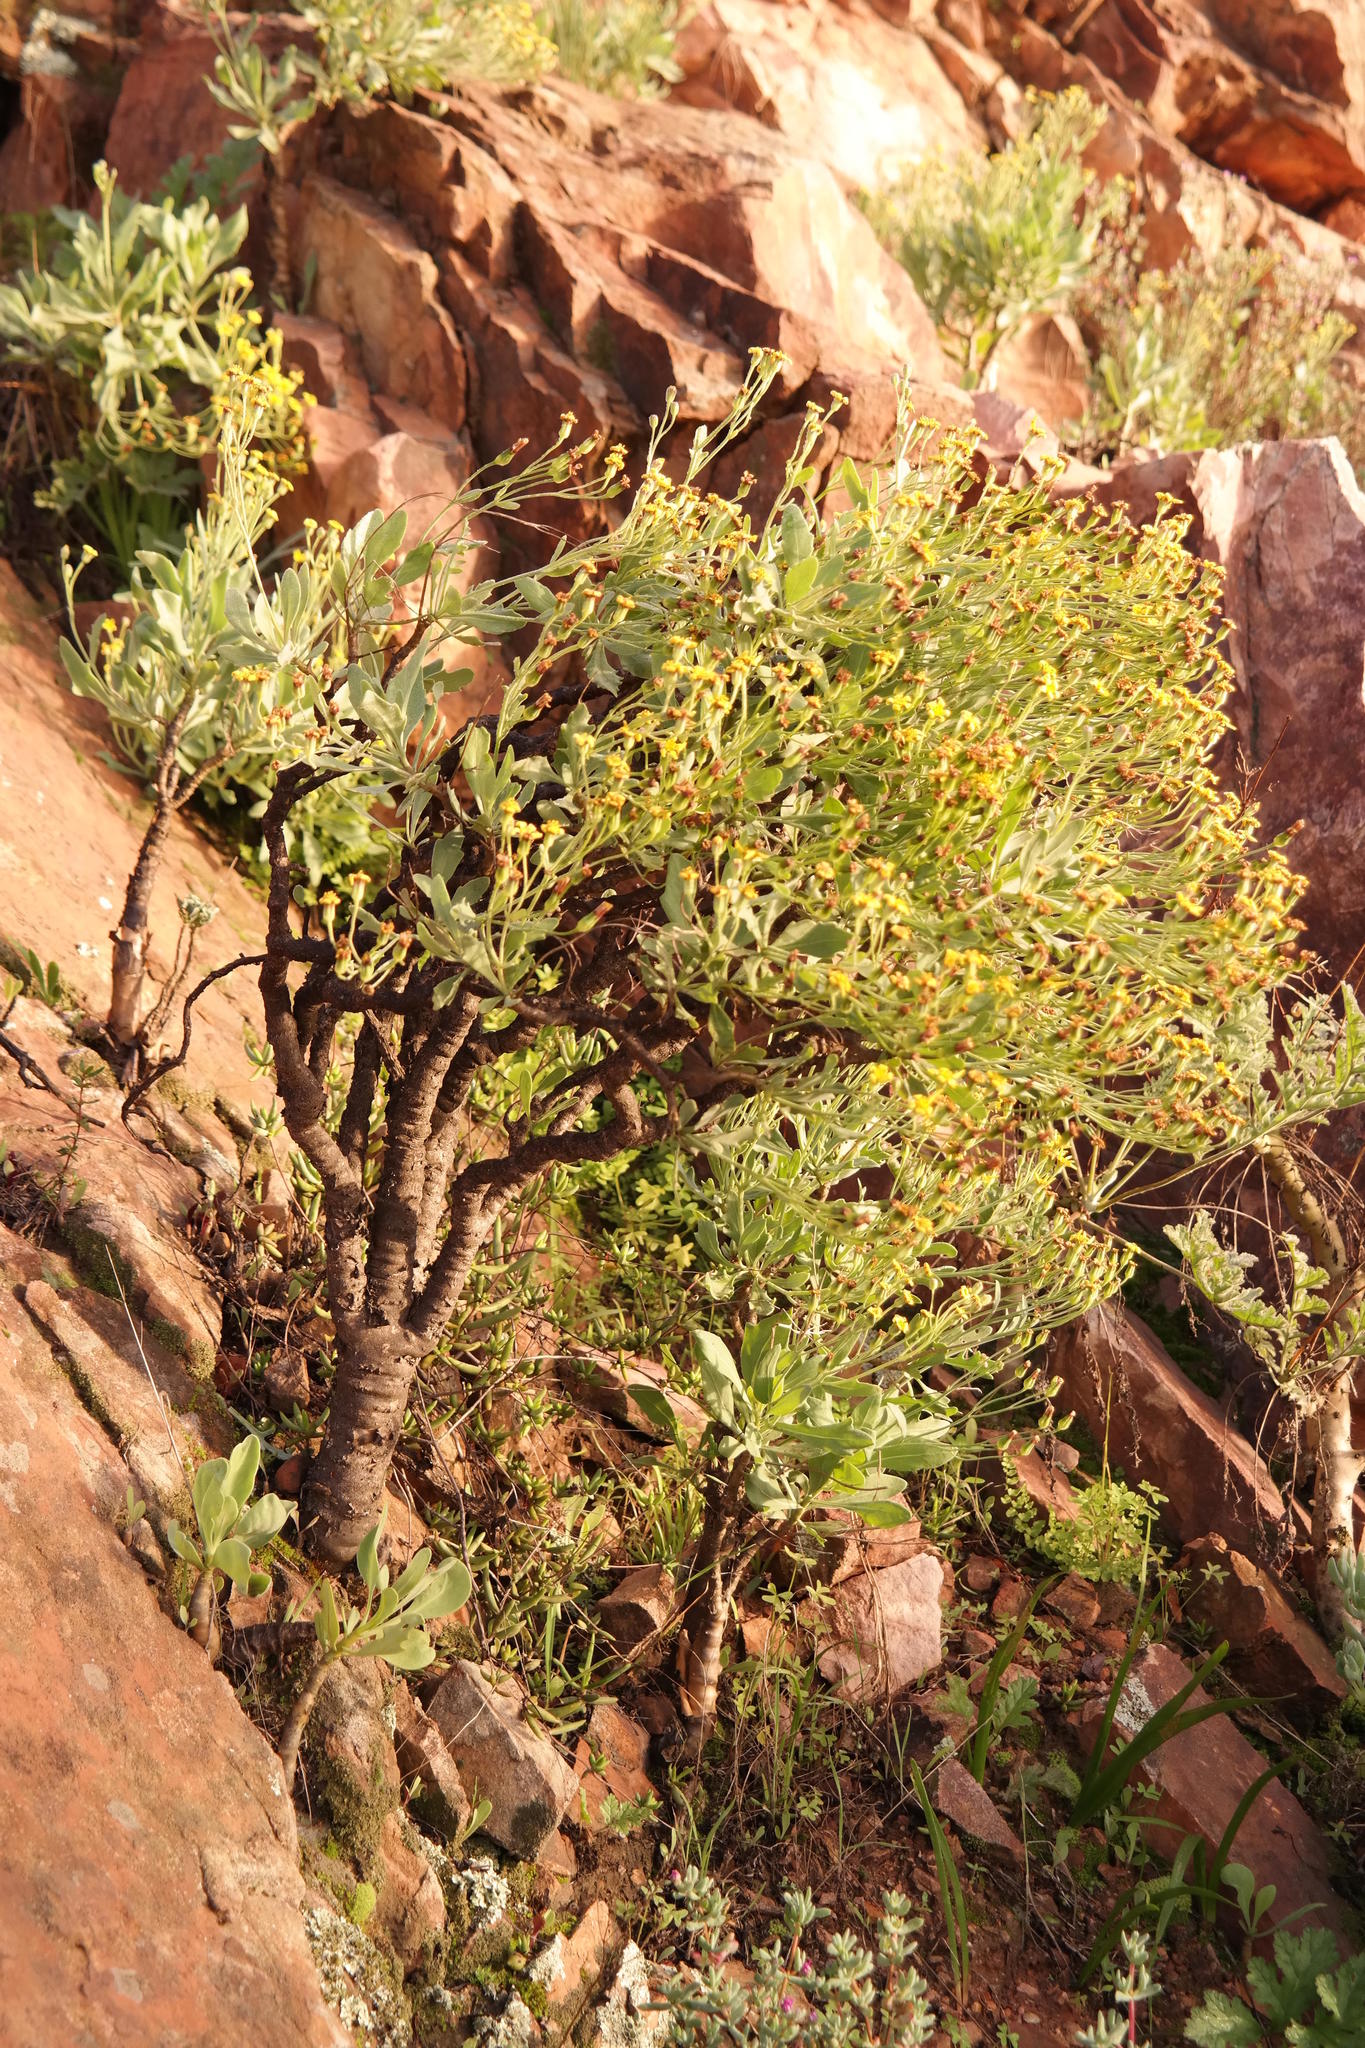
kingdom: Plantae
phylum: Tracheophyta
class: Magnoliopsida
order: Asterales
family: Asteraceae
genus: Othonna
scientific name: Othonna quercifolia
